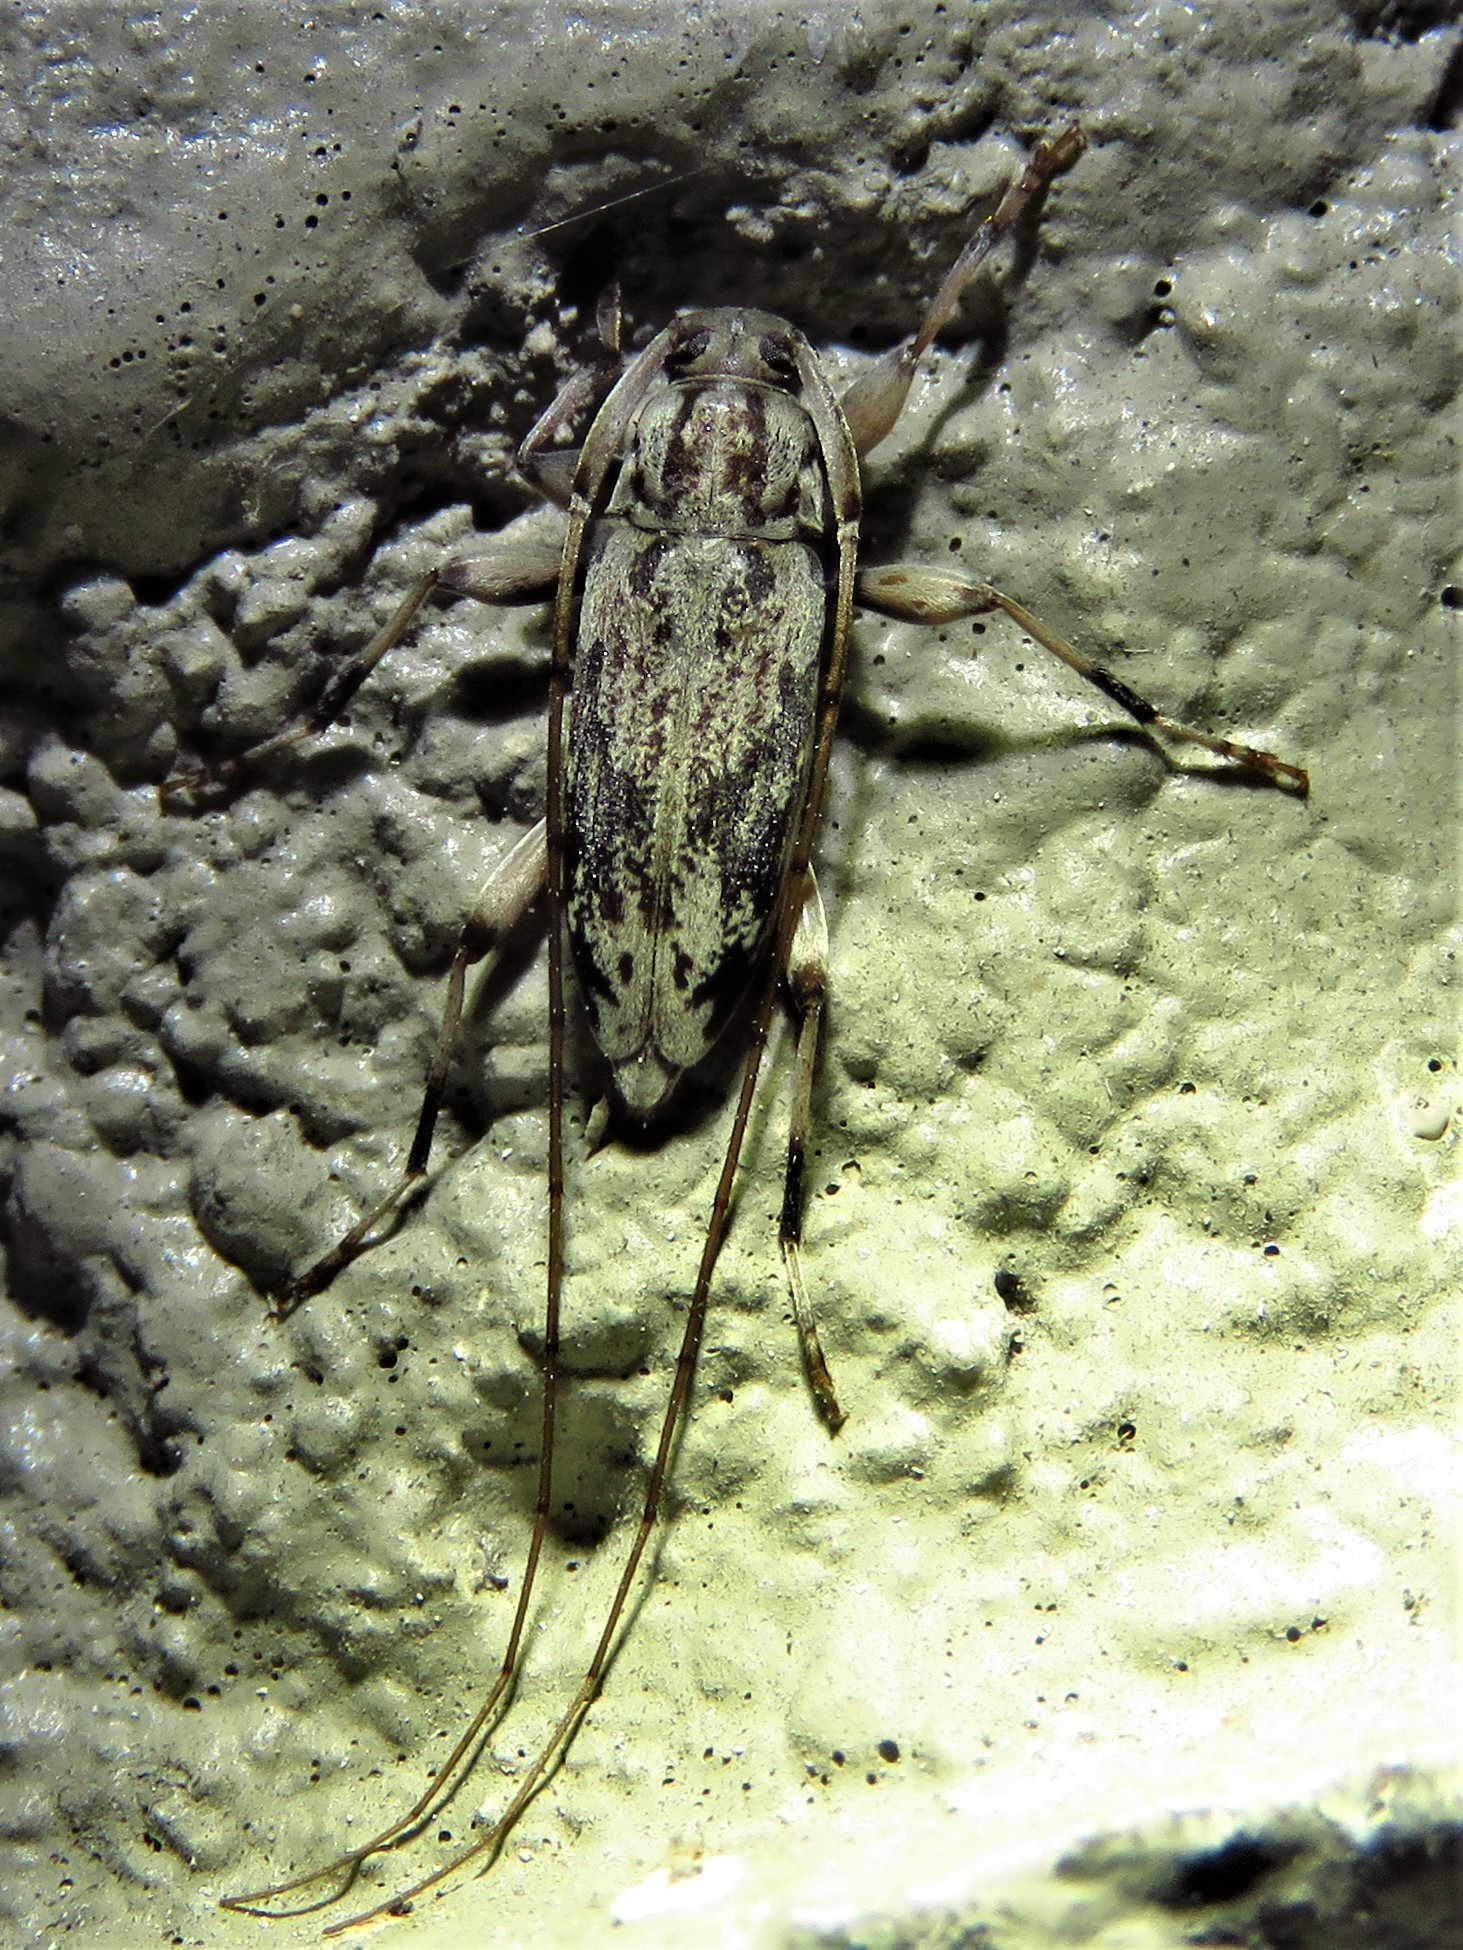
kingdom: Animalia
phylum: Arthropoda
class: Insecta
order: Coleoptera
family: Cerambycidae
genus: Lepturges
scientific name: Lepturges confluens
